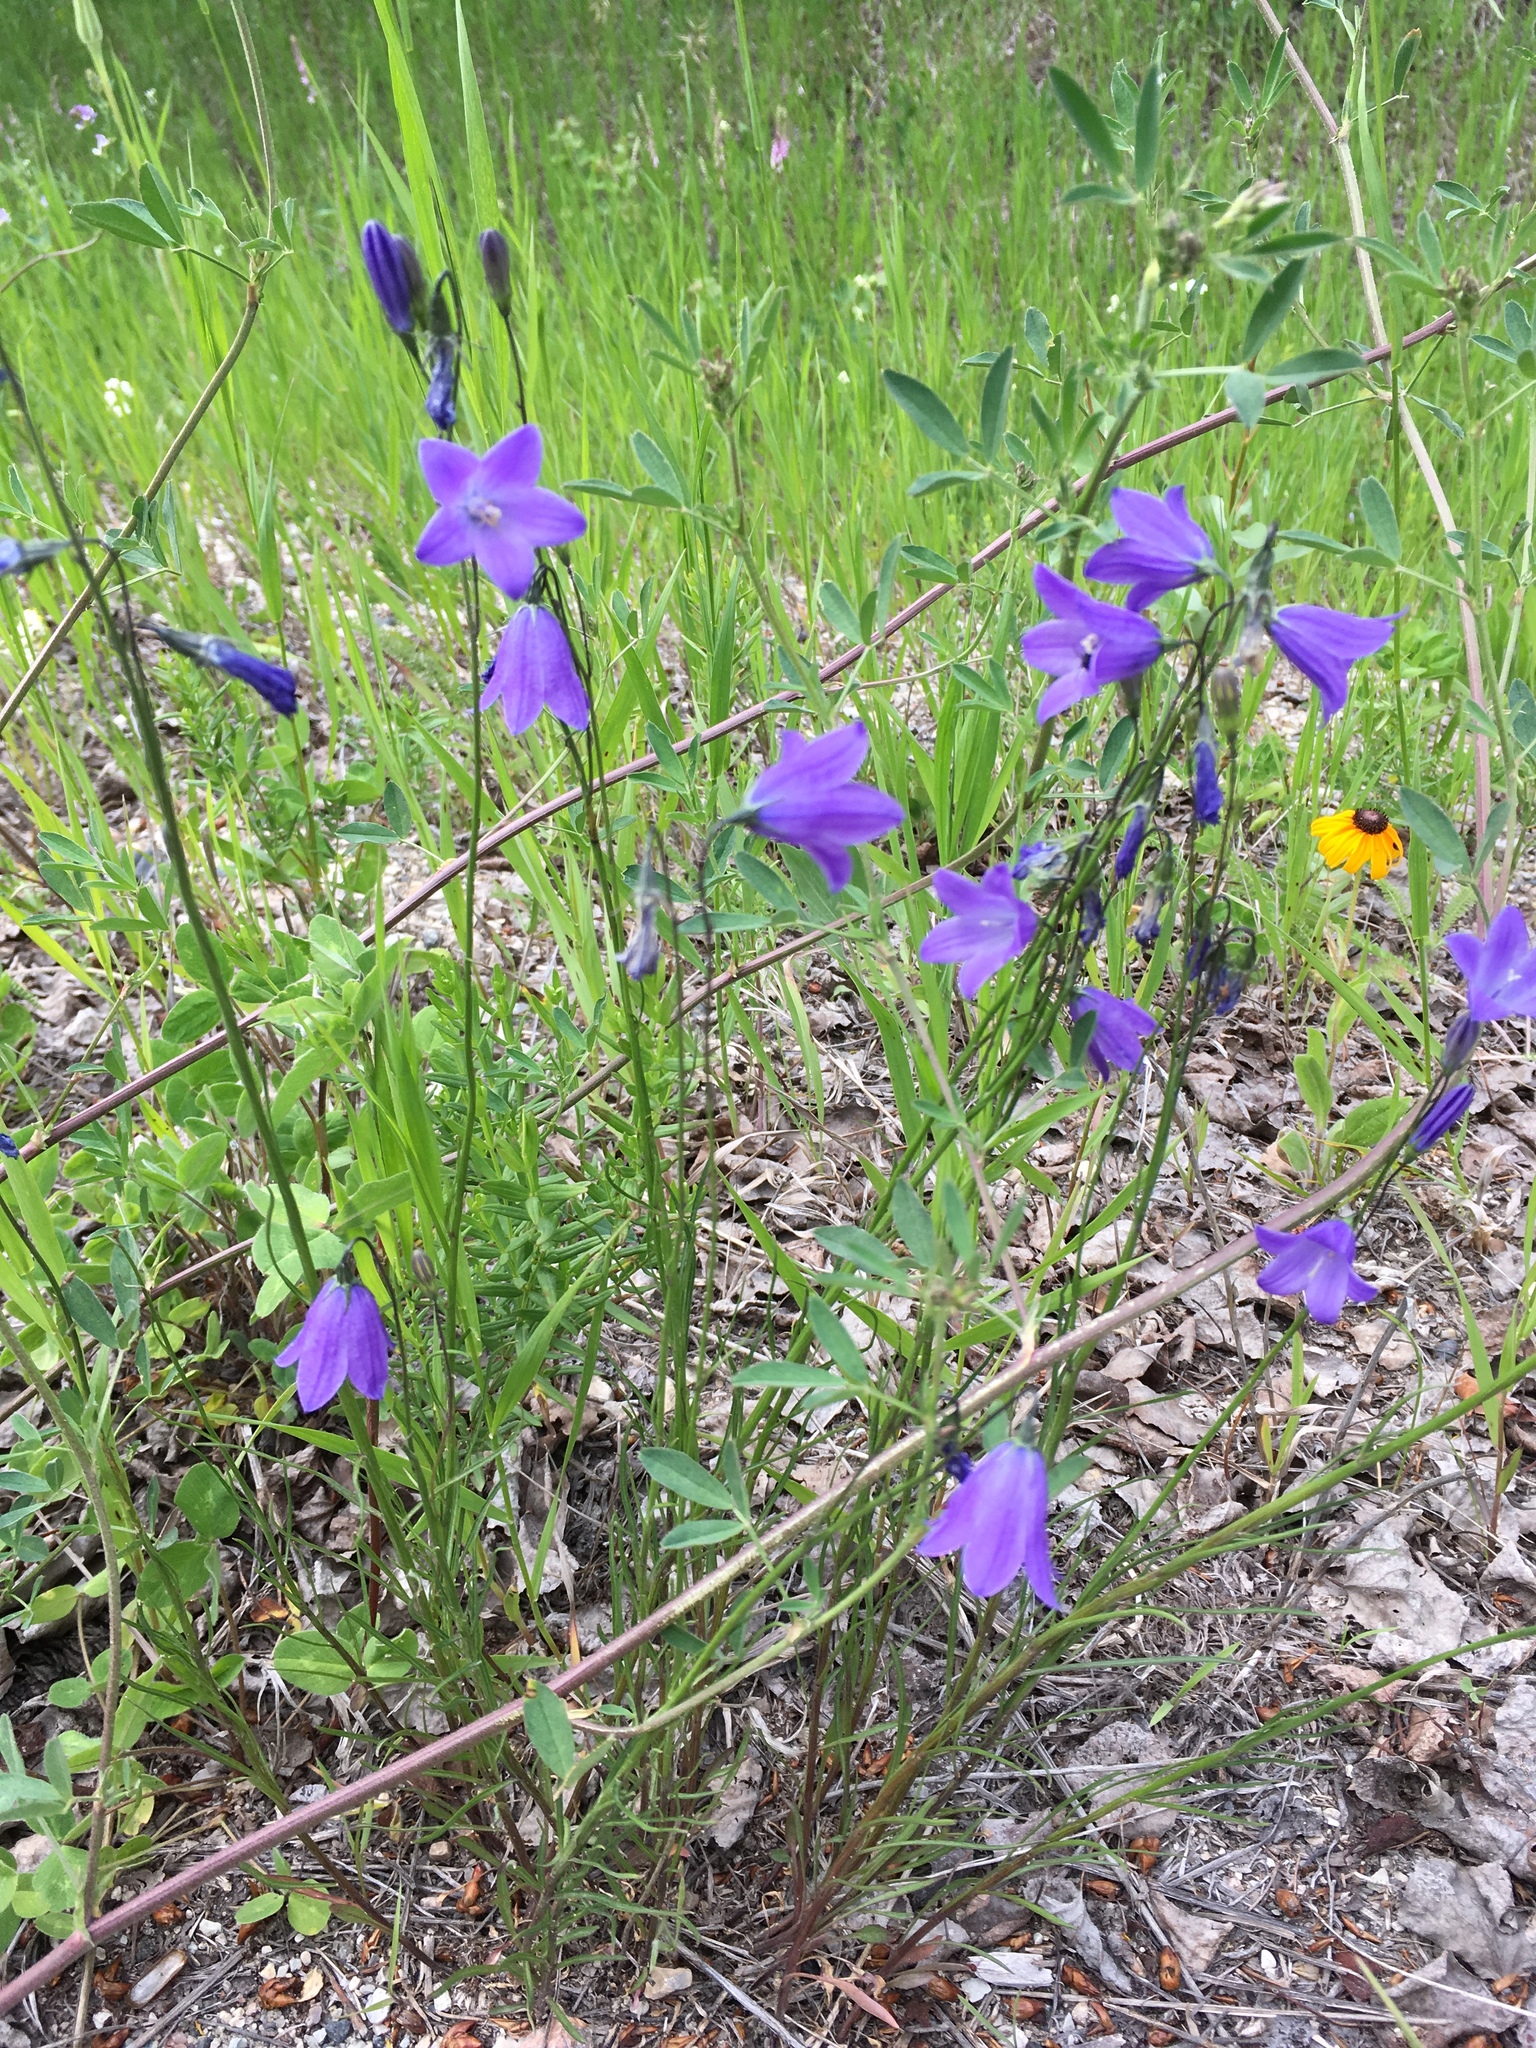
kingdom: Plantae
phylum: Tracheophyta
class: Magnoliopsida
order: Asterales
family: Campanulaceae
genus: Campanula
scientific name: Campanula petiolata
